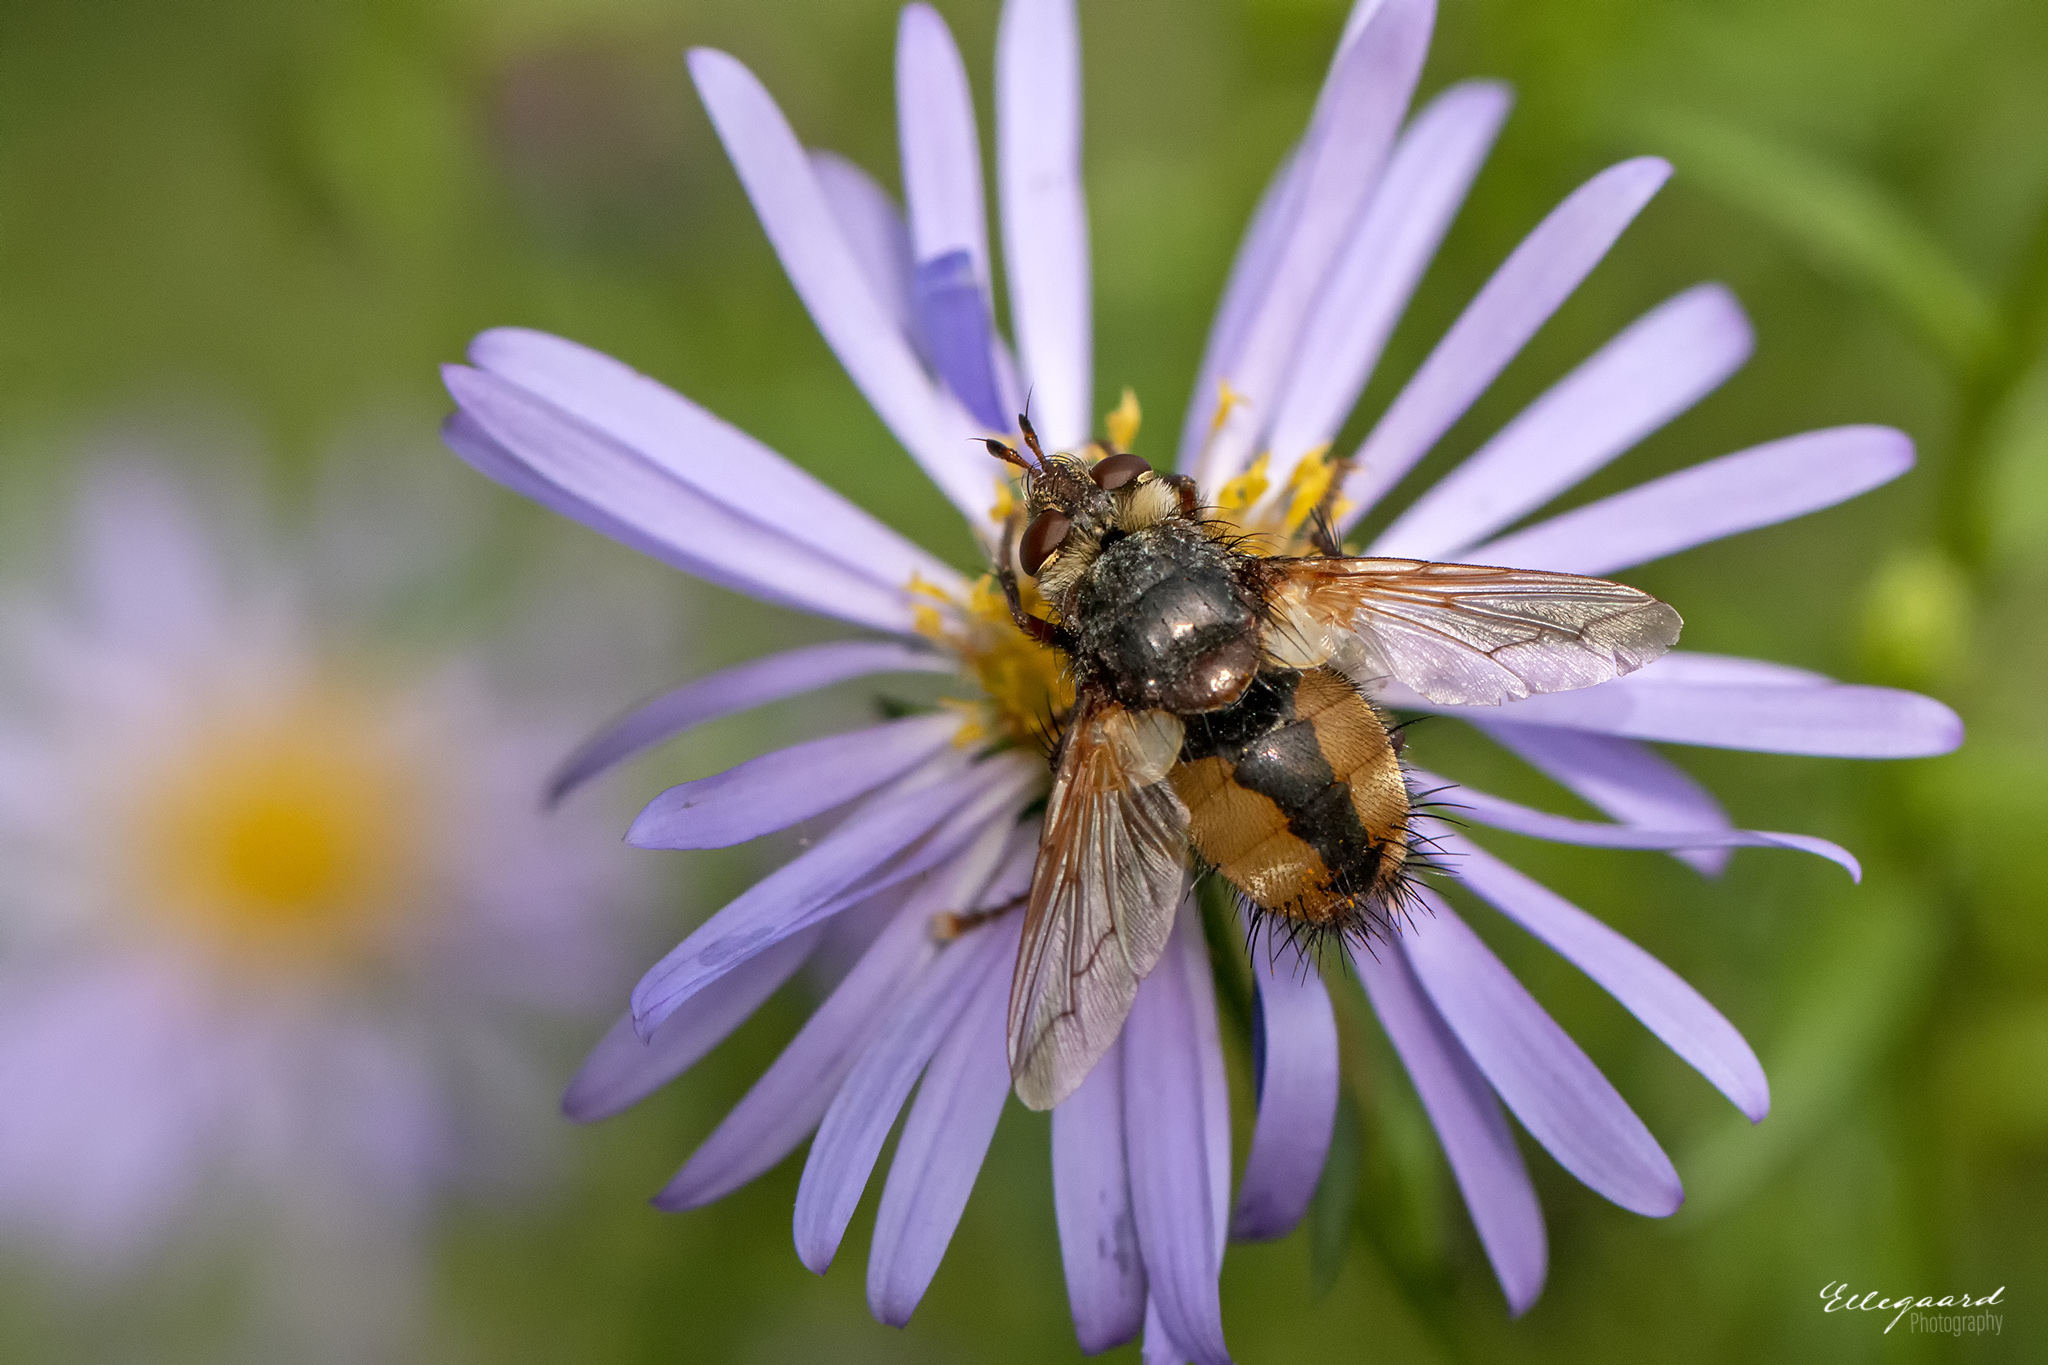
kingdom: Animalia
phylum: Arthropoda
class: Insecta
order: Diptera
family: Tachinidae
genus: Tachina
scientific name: Tachina fera
